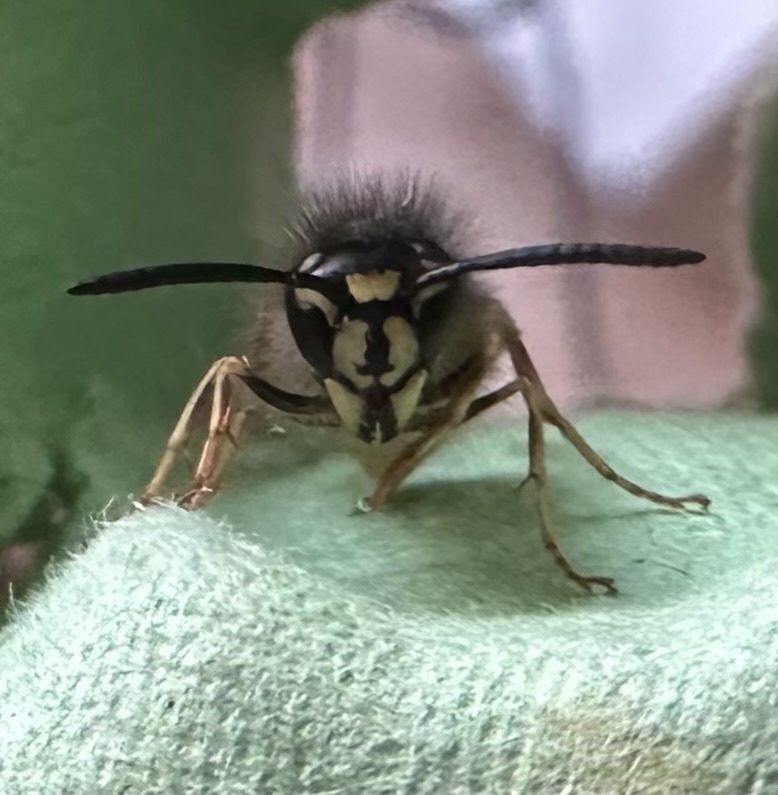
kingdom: Animalia
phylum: Arthropoda
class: Insecta
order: Hymenoptera
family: Vespidae
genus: Vespula
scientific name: Vespula vulgaris
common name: Common wasp
